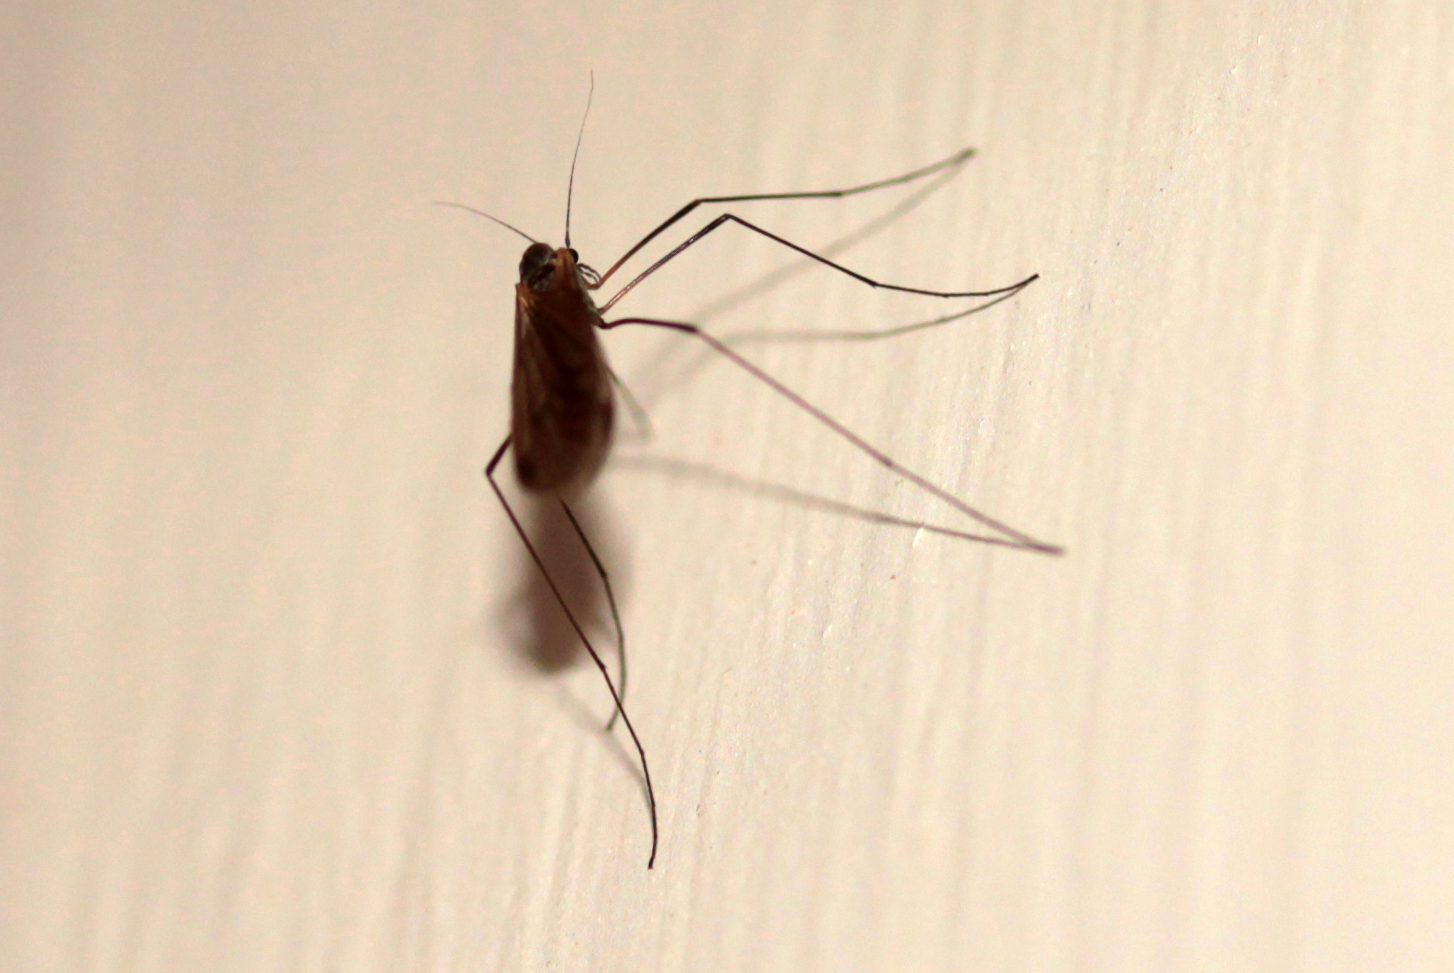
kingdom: Animalia
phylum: Arthropoda
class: Insecta
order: Diptera
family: Trichoceridae
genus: Trichocera
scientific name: Trichocera
